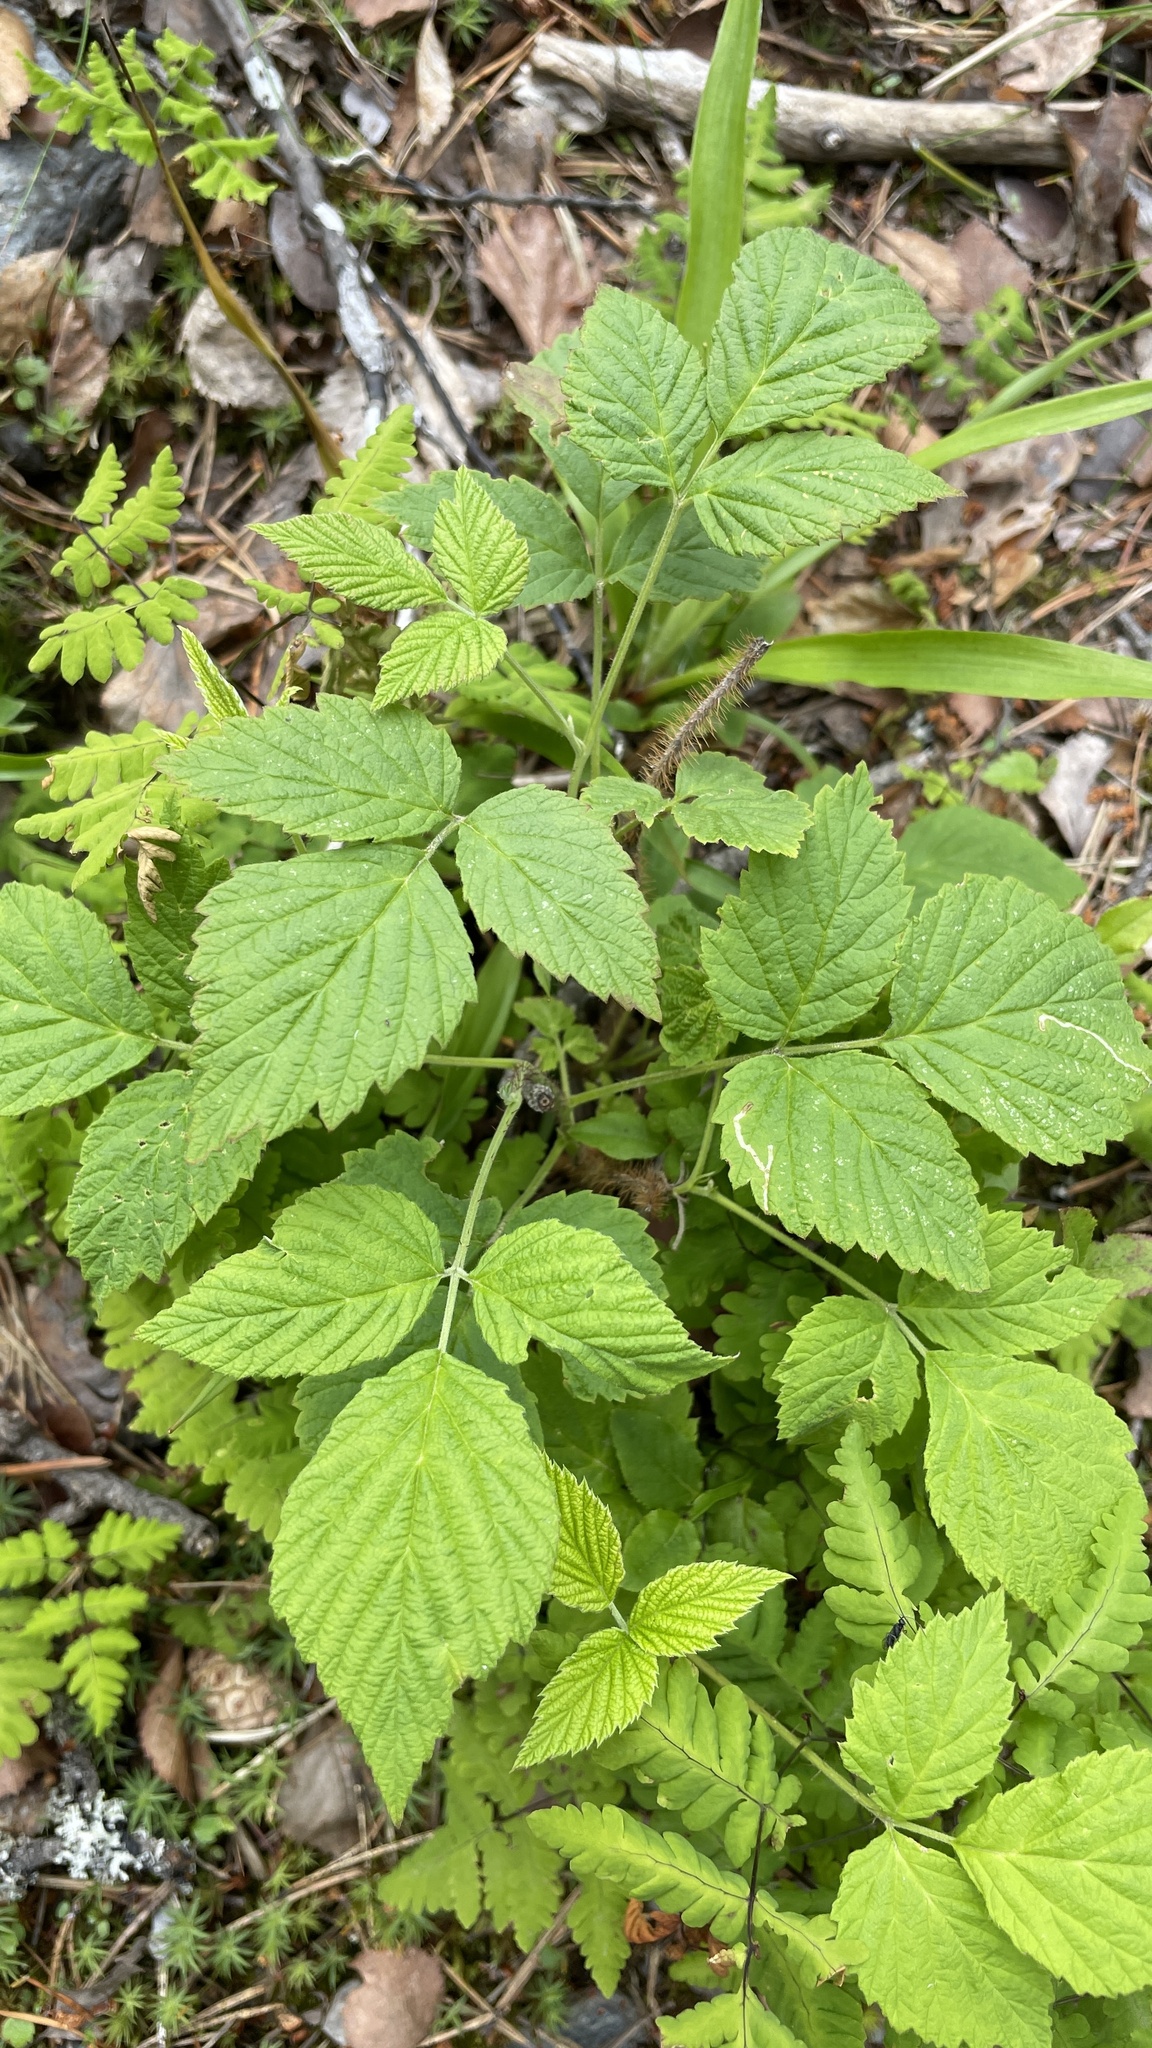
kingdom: Plantae
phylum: Tracheophyta
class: Magnoliopsida
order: Rosales
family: Rosaceae
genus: Rubus
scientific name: Rubus idaeus
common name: Raspberry
